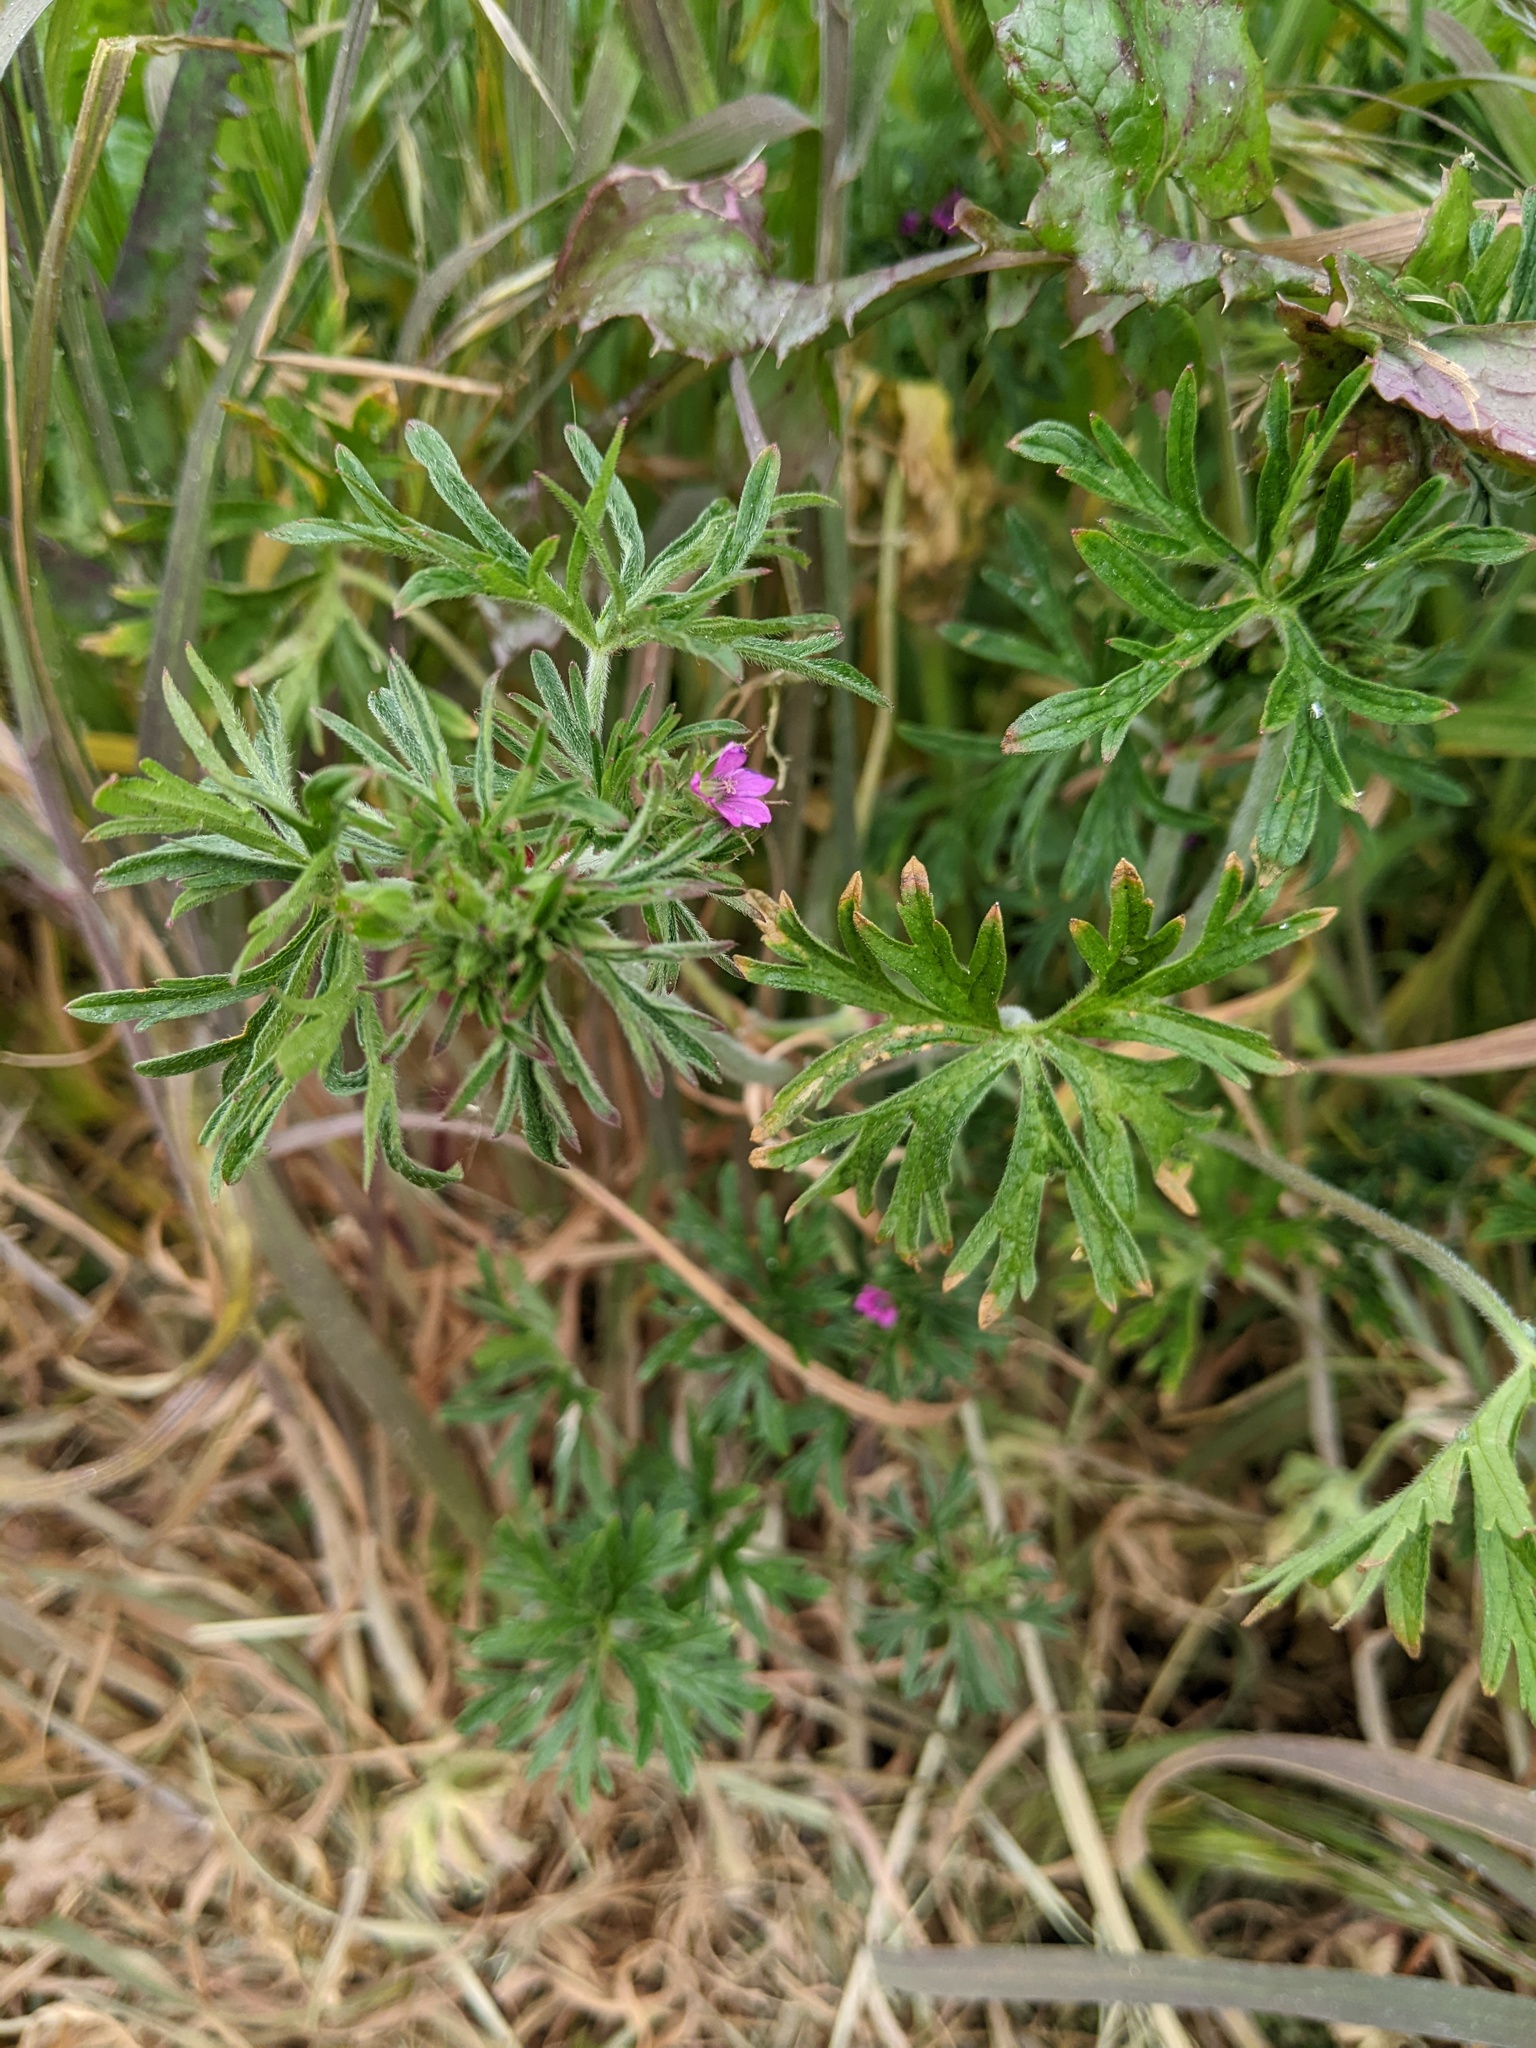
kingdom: Plantae
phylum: Tracheophyta
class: Magnoliopsida
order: Geraniales
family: Geraniaceae
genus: Geranium
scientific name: Geranium dissectum
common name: Cut-leaved crane's-bill
